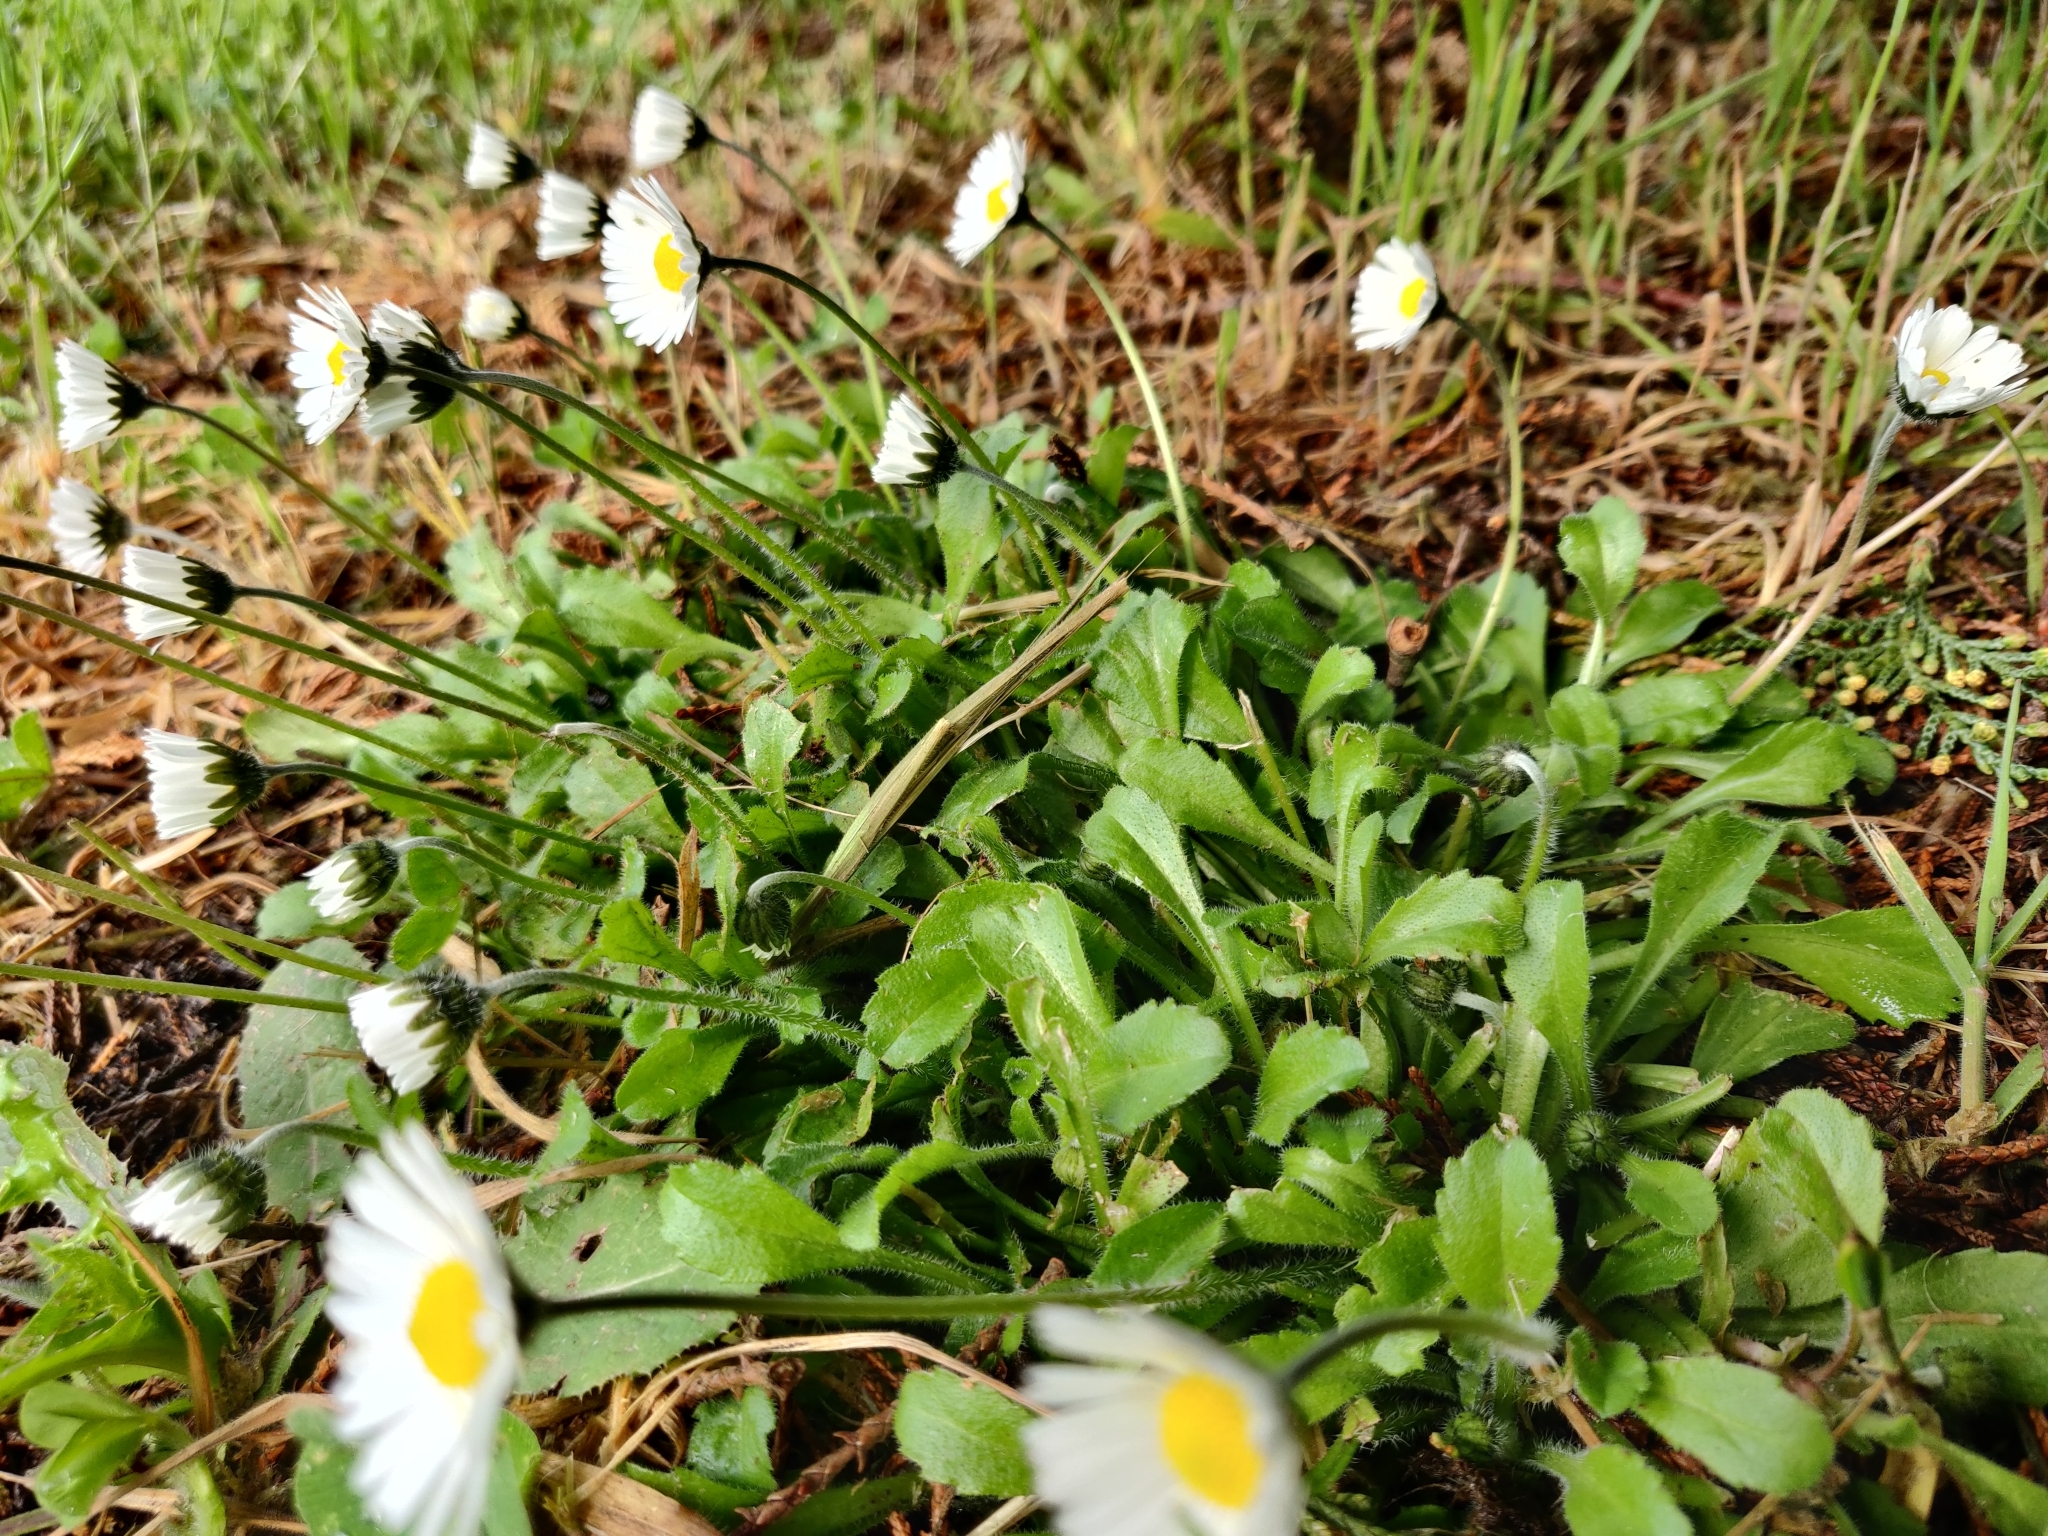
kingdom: Plantae
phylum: Tracheophyta
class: Magnoliopsida
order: Asterales
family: Asteraceae
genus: Bellis
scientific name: Bellis perennis
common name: Lawndaisy
